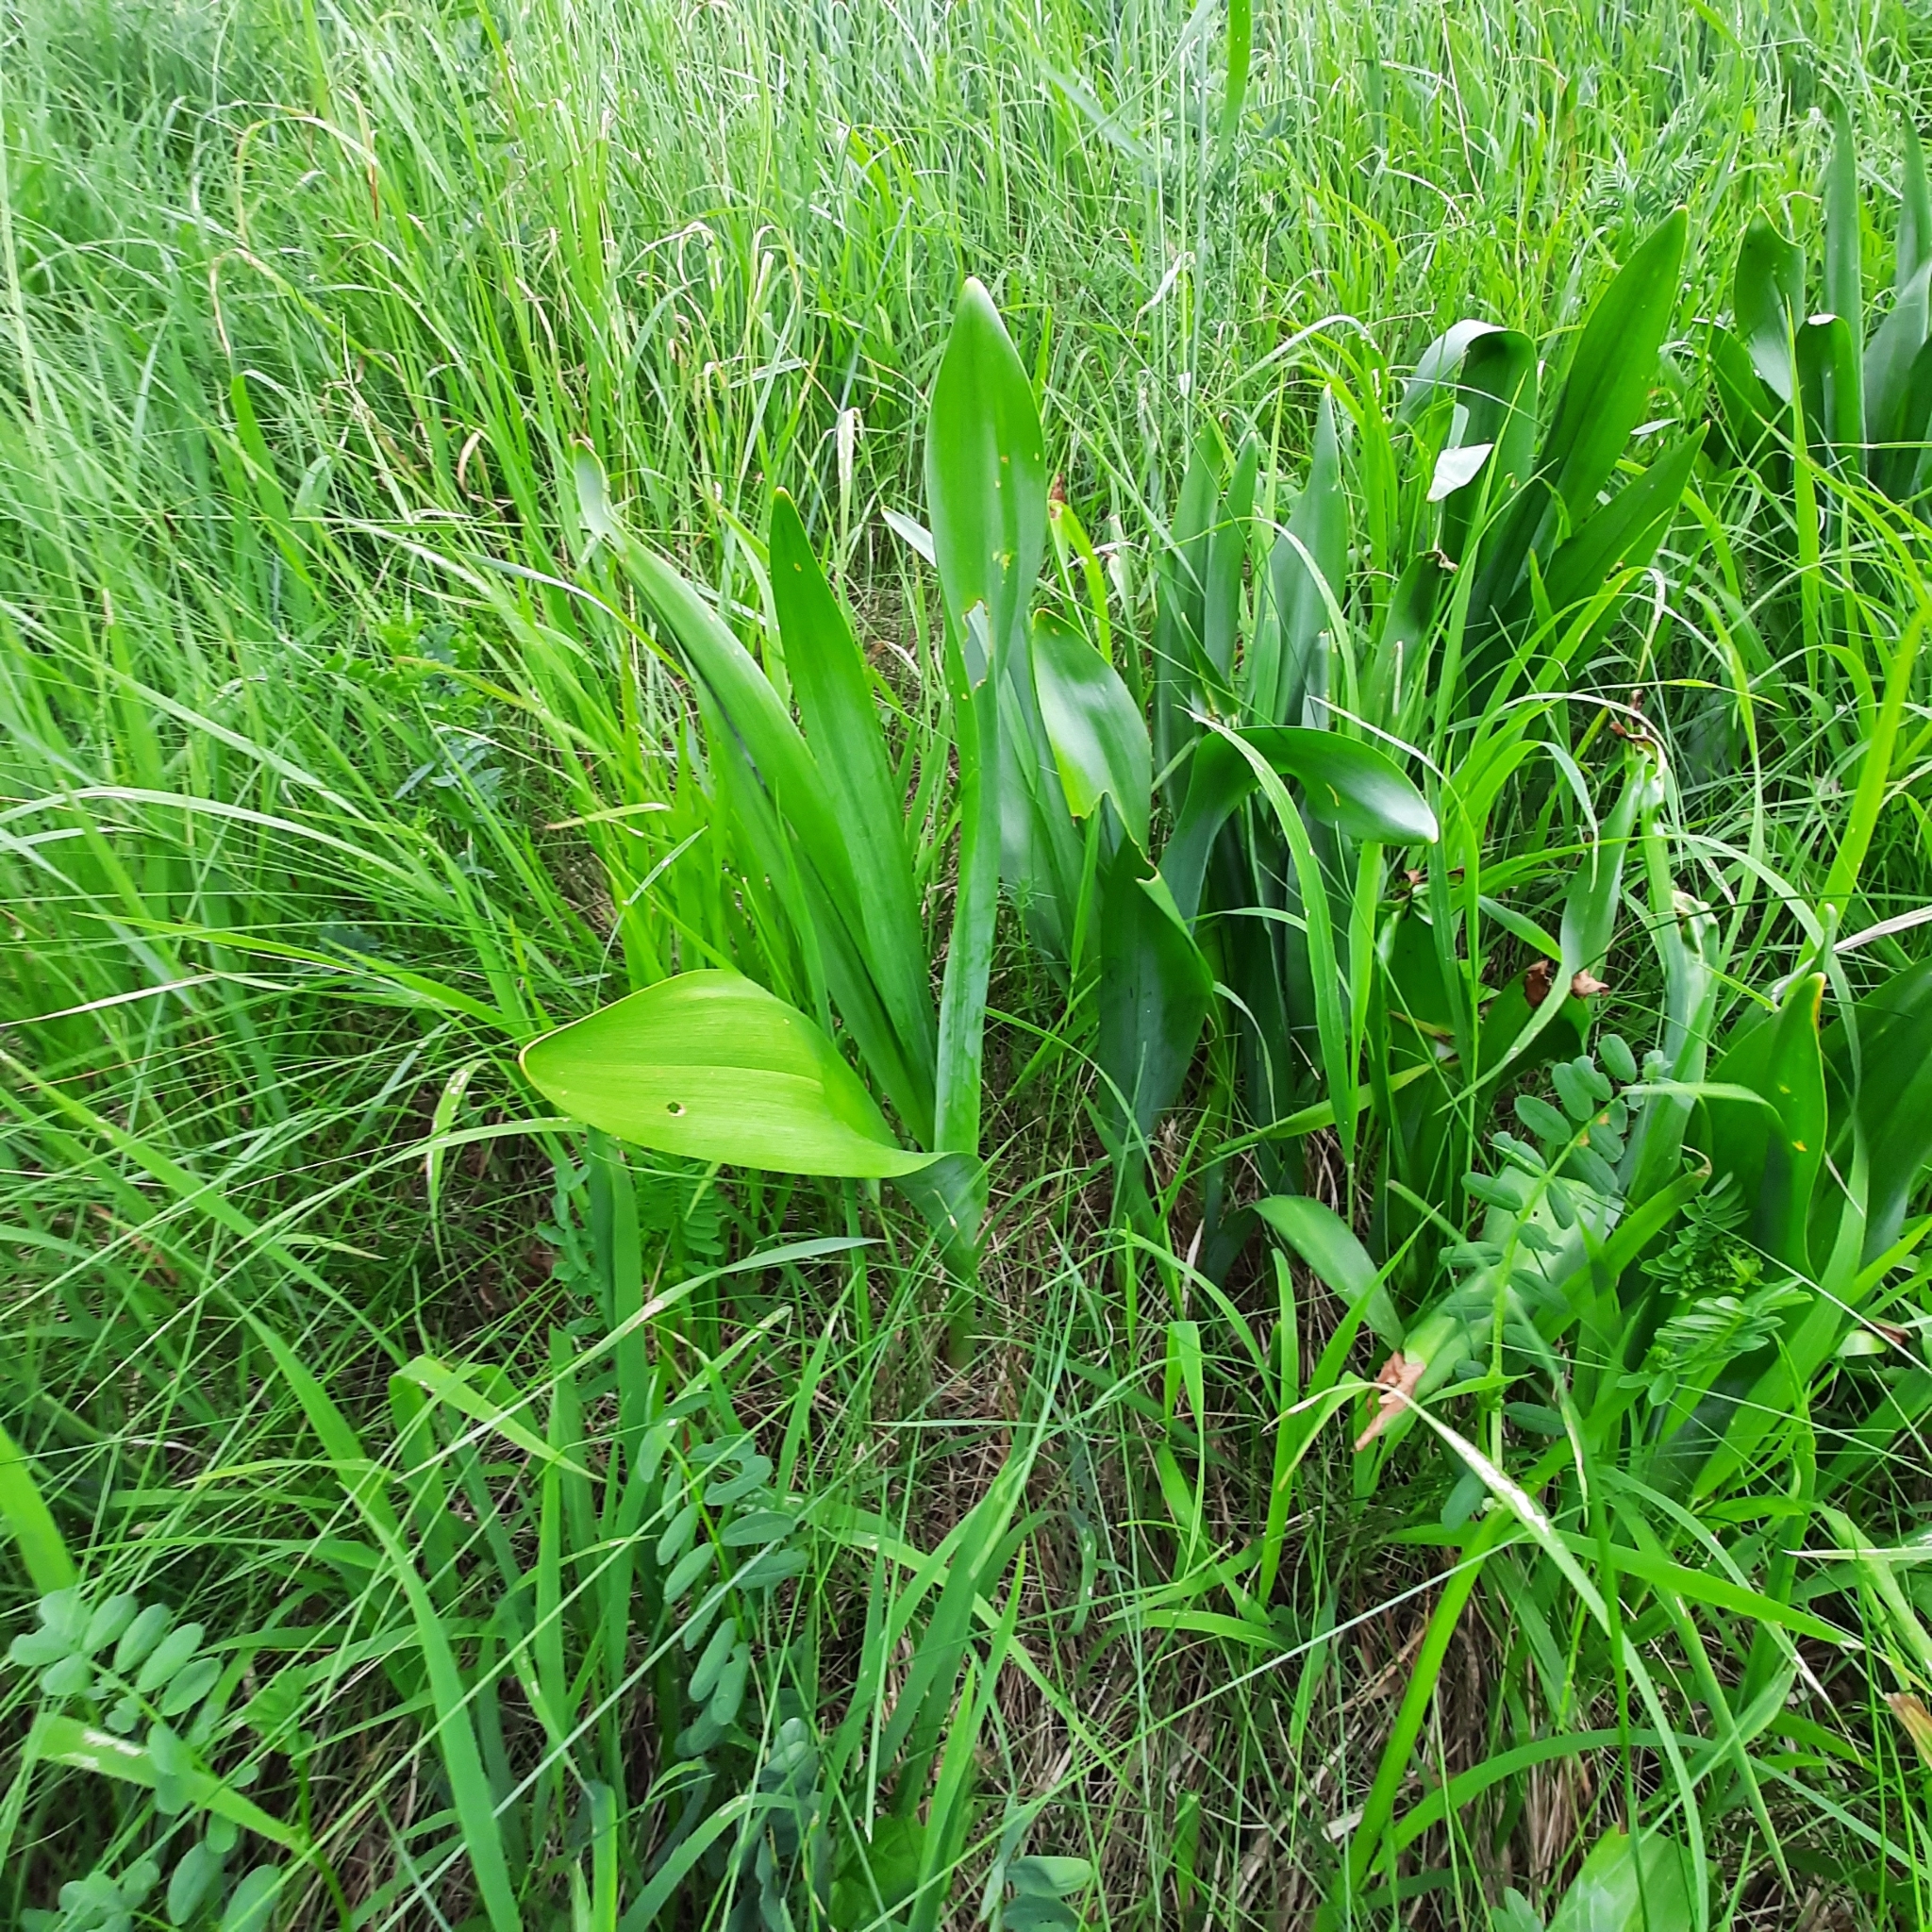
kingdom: Plantae
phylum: Tracheophyta
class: Liliopsida
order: Liliales
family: Colchicaceae
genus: Colchicum
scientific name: Colchicum autumnale
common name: Autumn crocus
